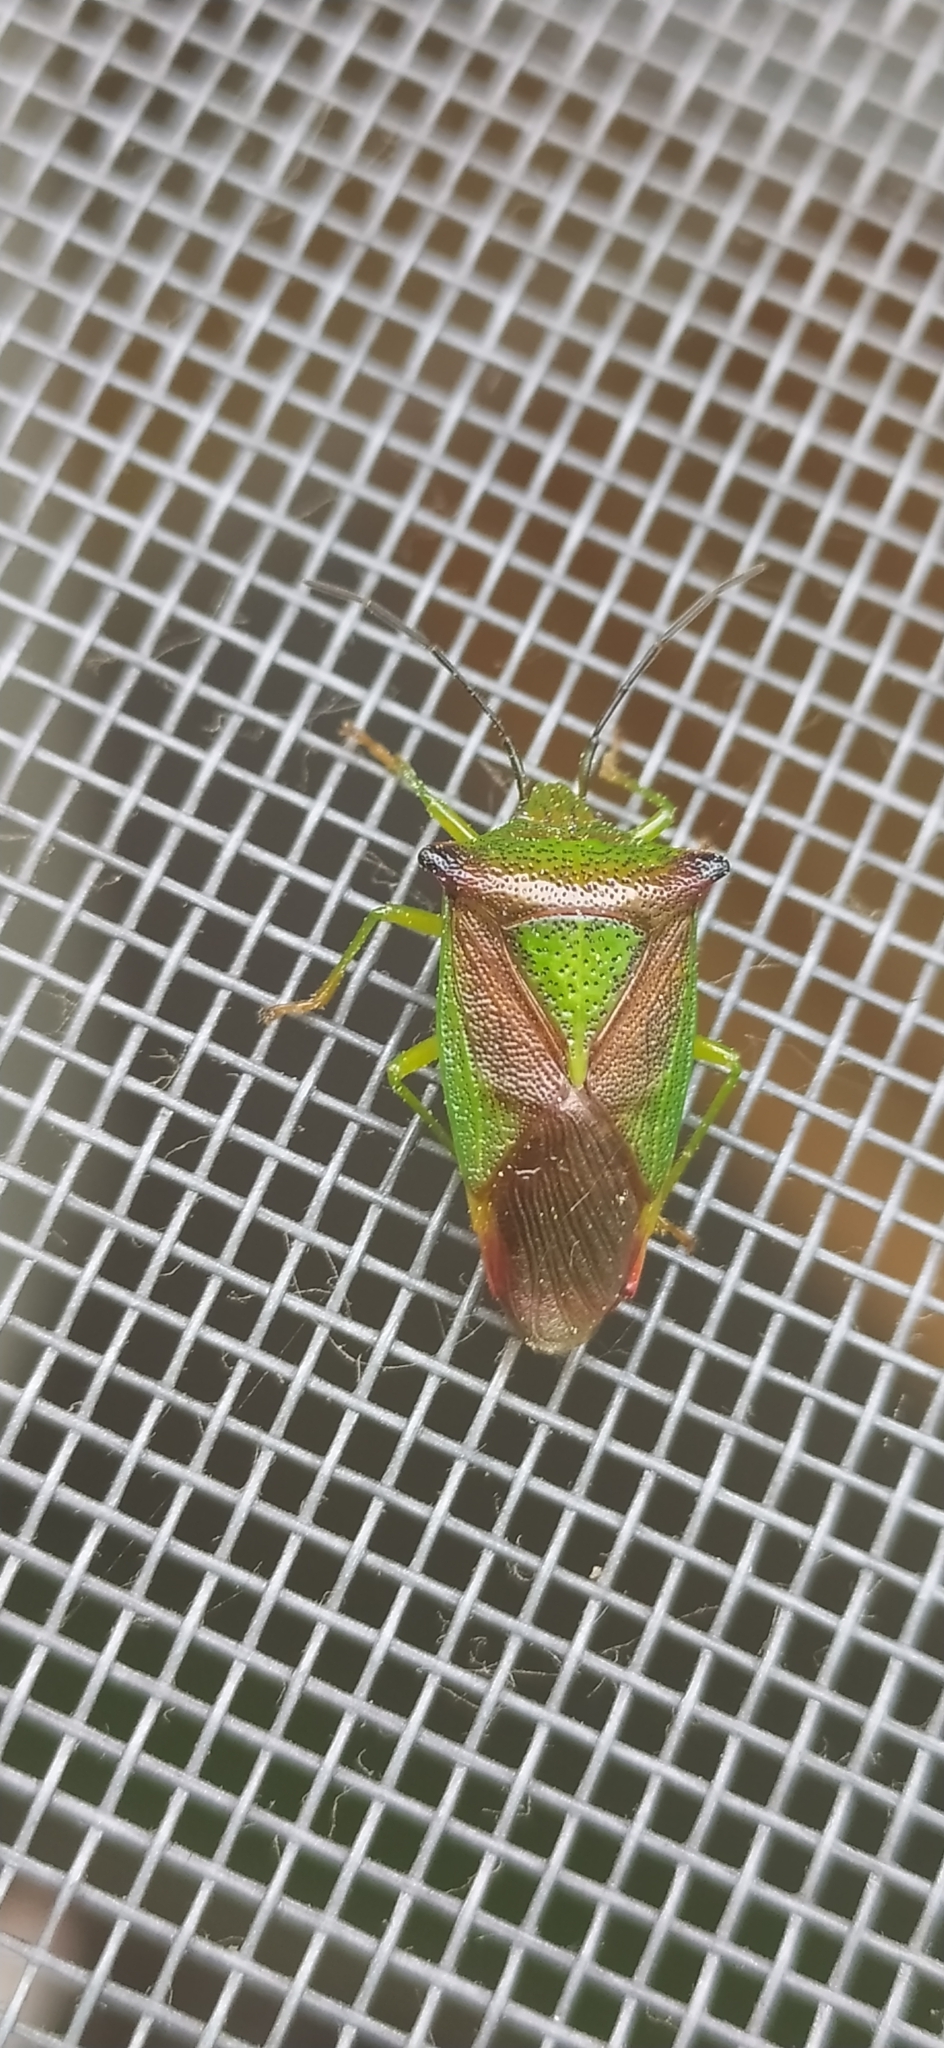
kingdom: Animalia
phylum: Arthropoda
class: Insecta
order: Hemiptera
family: Acanthosomatidae
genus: Acanthosoma
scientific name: Acanthosoma haemorrhoidale
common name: Hawthorn shieldbug
